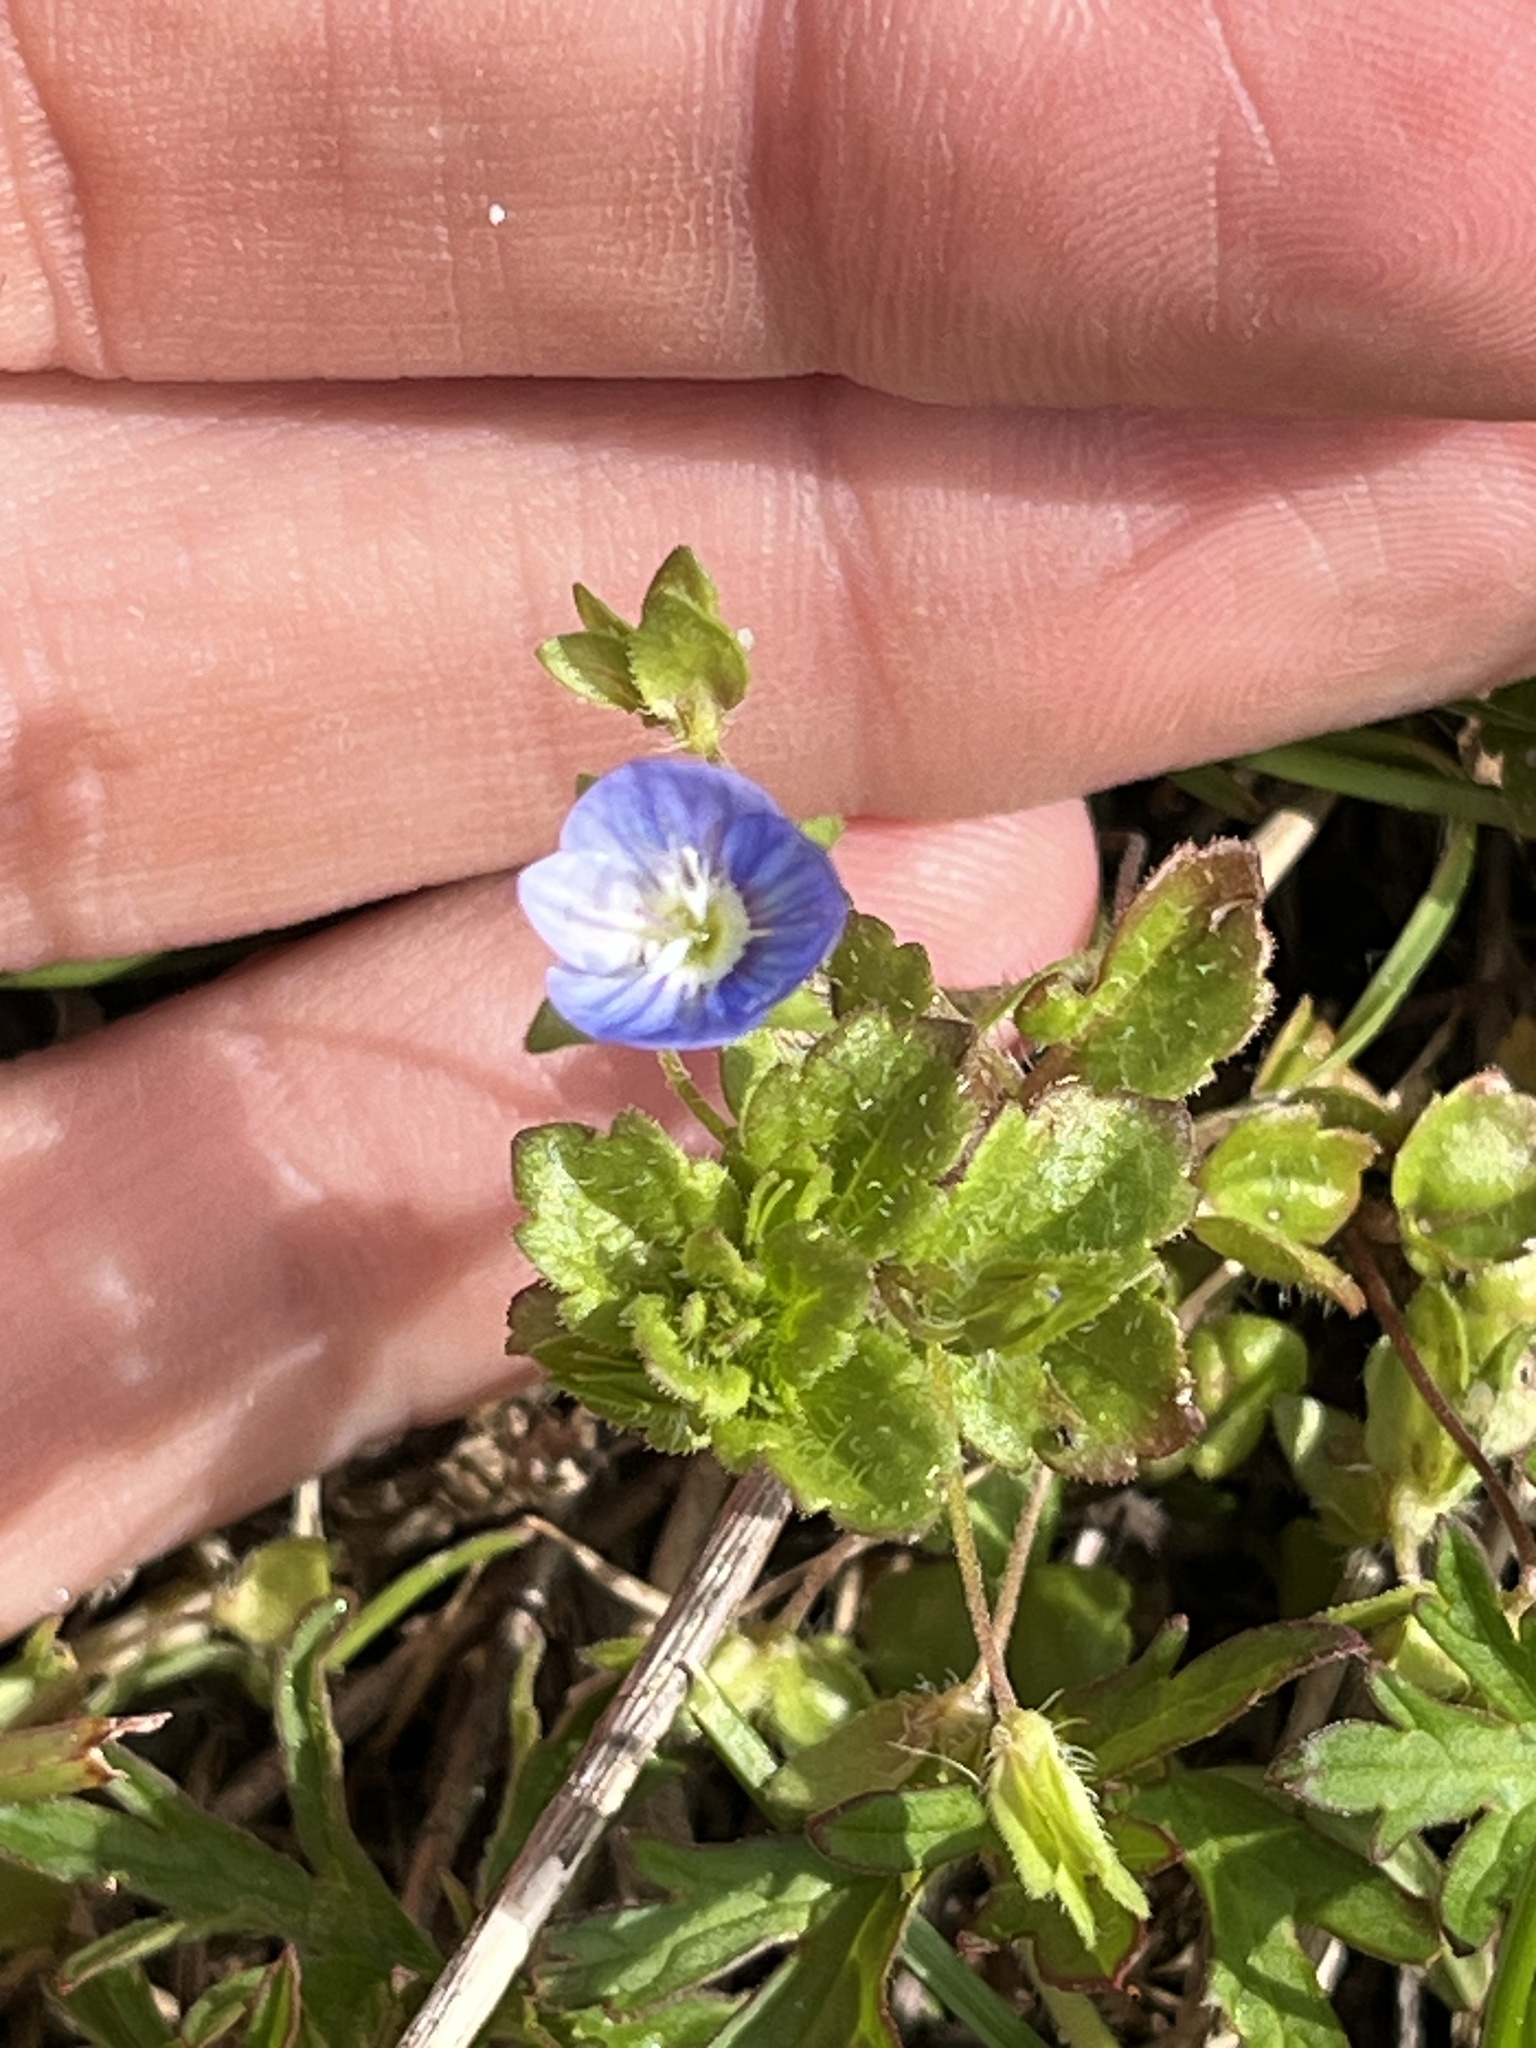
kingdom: Plantae
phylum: Tracheophyta
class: Magnoliopsida
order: Lamiales
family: Plantaginaceae
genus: Veronica
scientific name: Veronica persica
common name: Common field-speedwell
